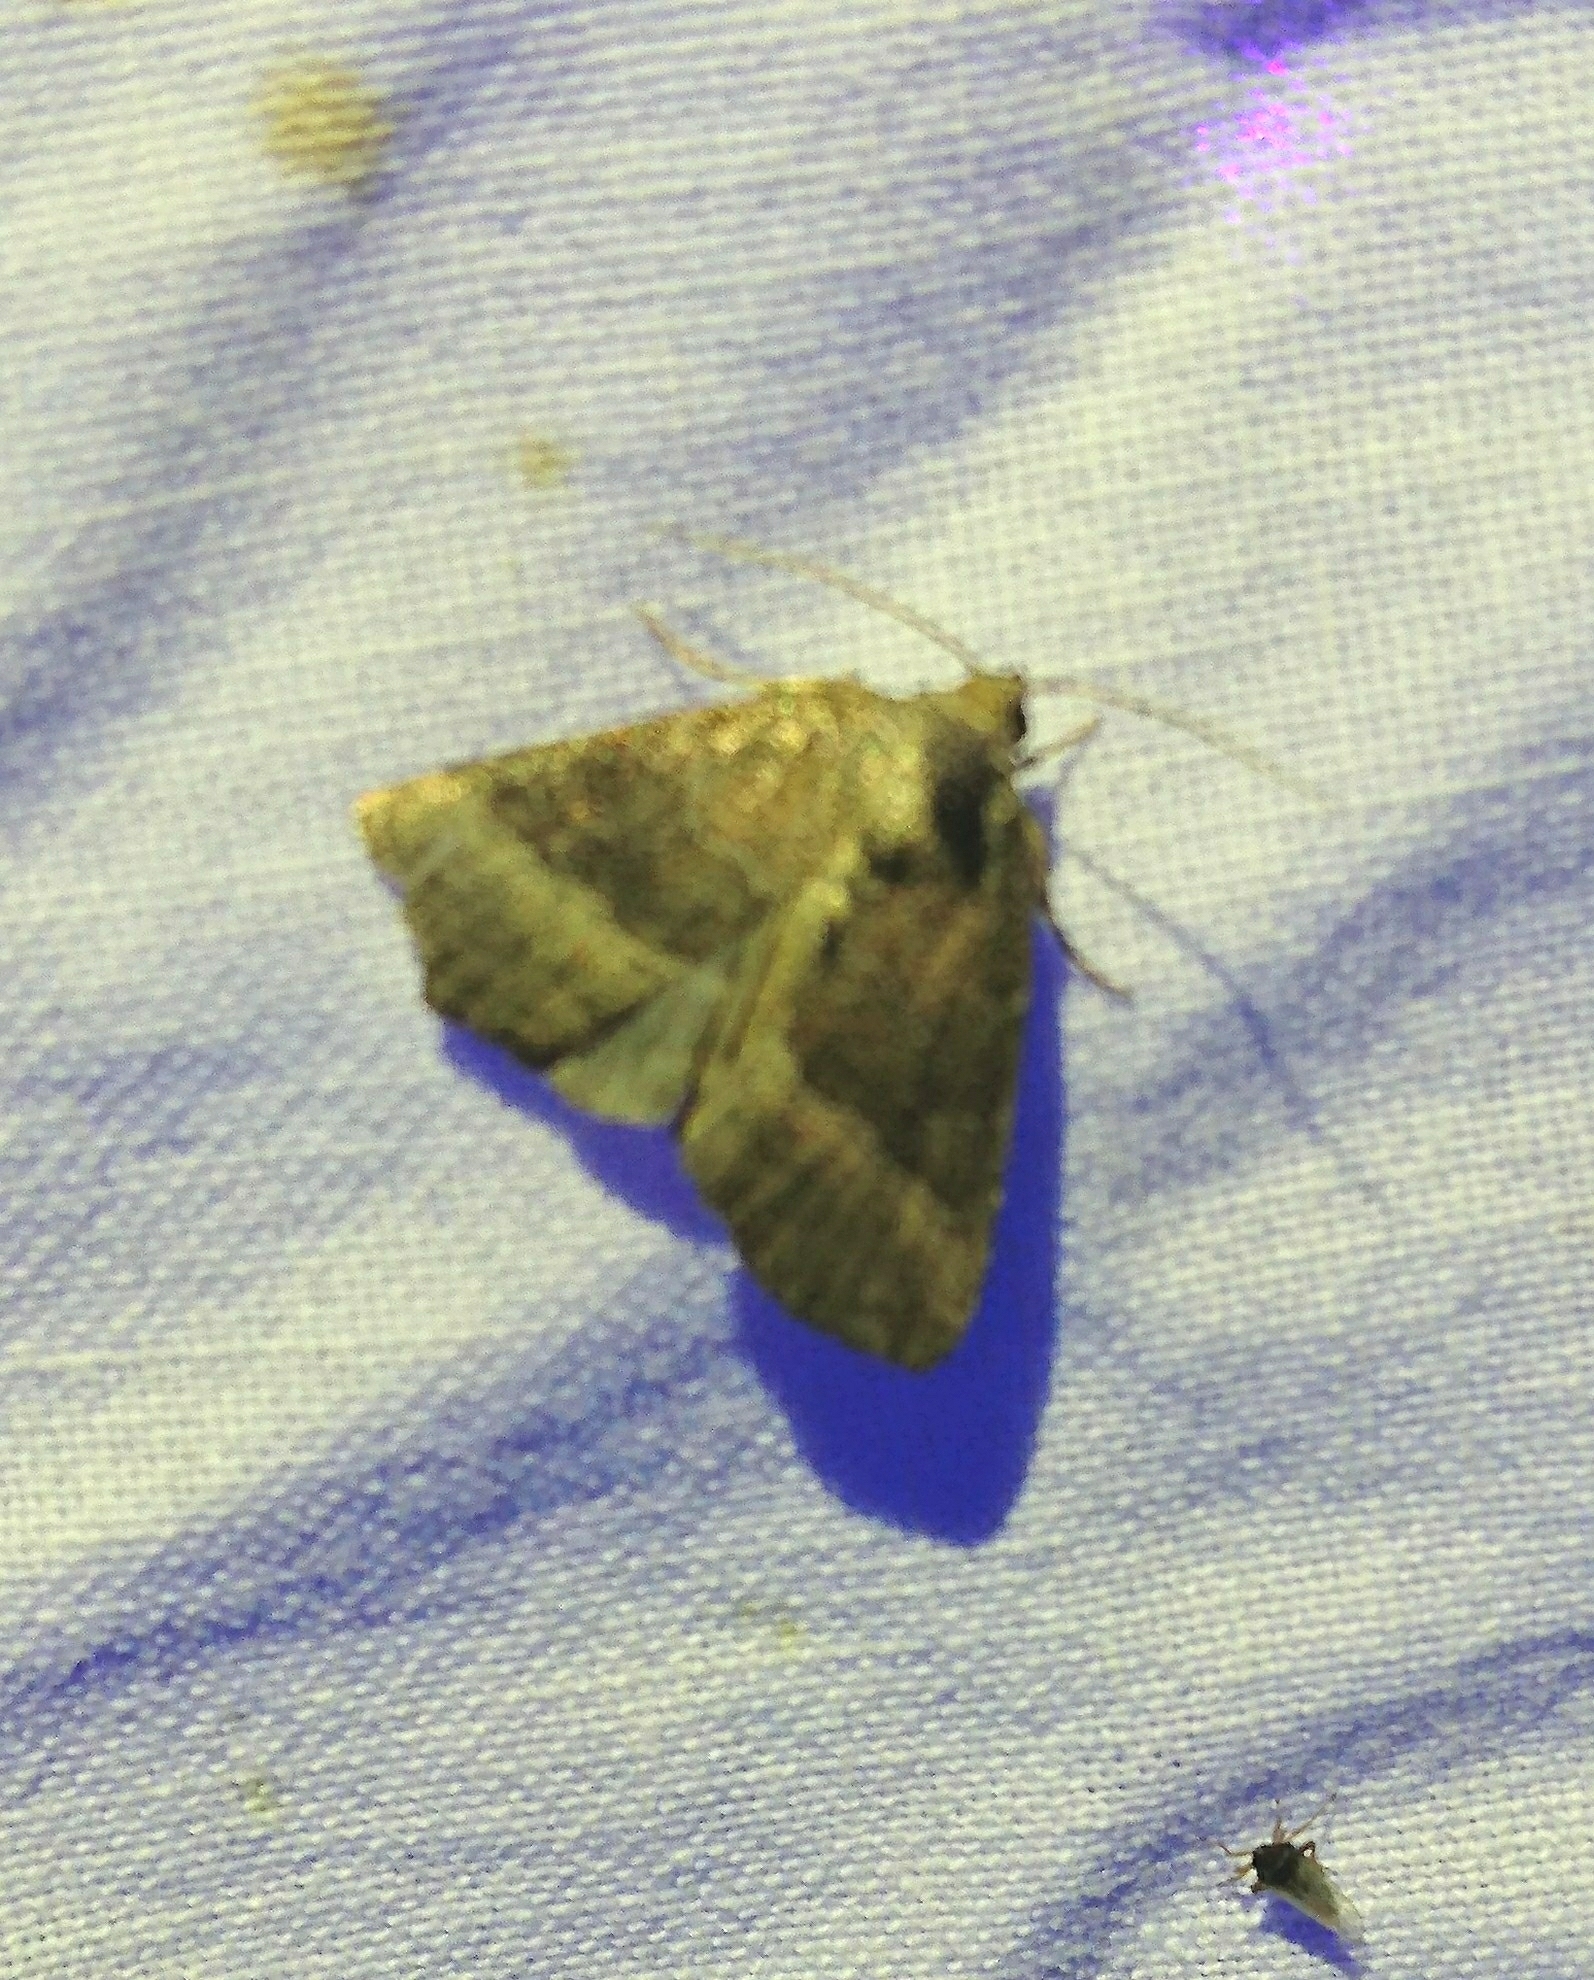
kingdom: Animalia
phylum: Arthropoda
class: Insecta
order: Lepidoptera
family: Noctuidae
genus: Ogdoconta
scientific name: Ogdoconta cinereola
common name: Common pinkband
